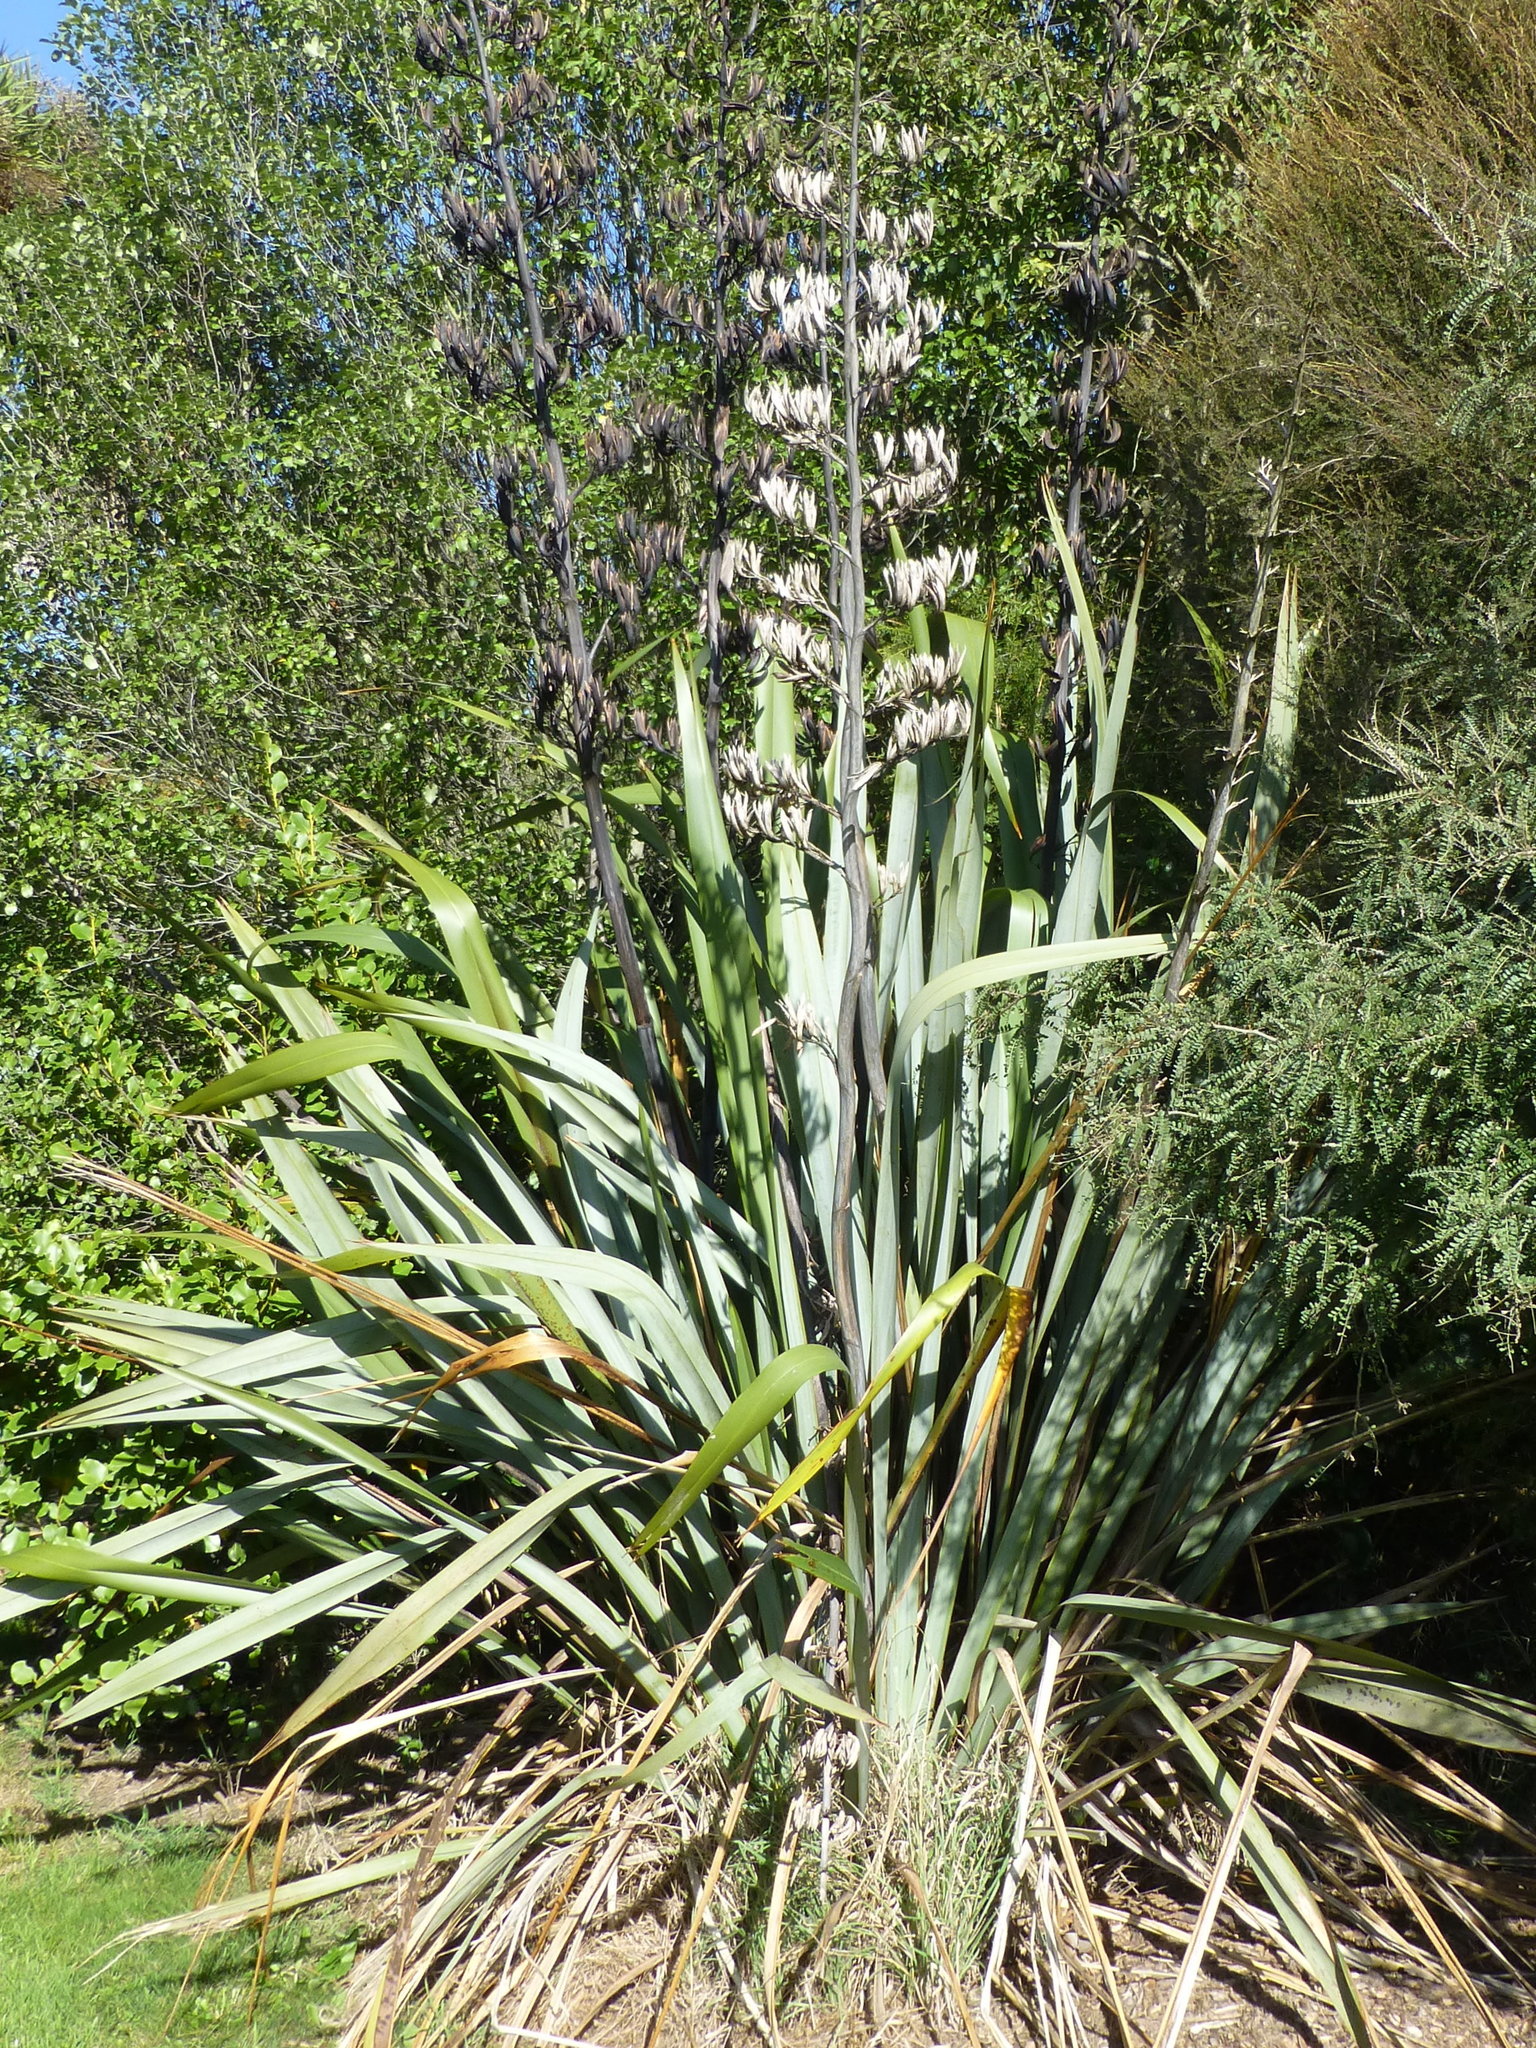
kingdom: Plantae
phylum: Tracheophyta
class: Liliopsida
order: Asparagales
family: Asphodelaceae
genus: Phormium
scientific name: Phormium tenax
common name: New zealand flax
